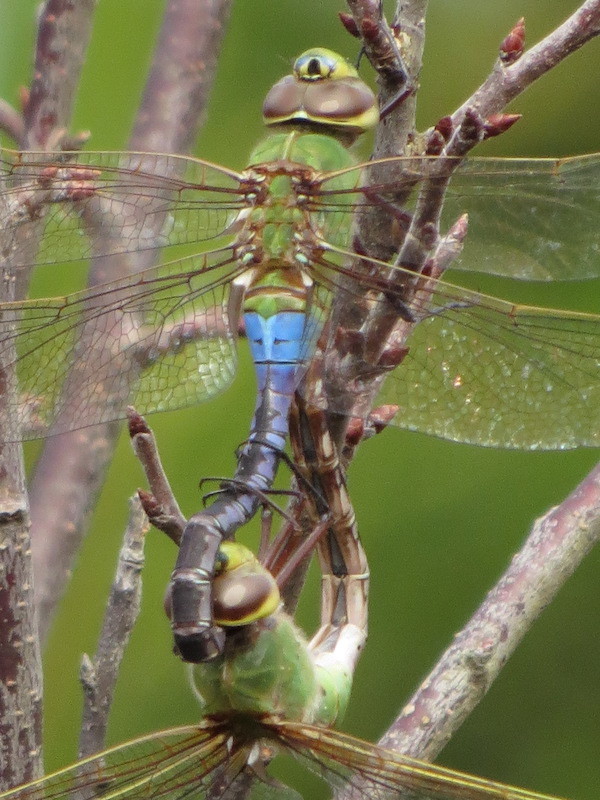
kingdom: Animalia
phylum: Arthropoda
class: Insecta
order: Odonata
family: Aeshnidae
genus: Anax
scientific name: Anax junius
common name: Common green darner
